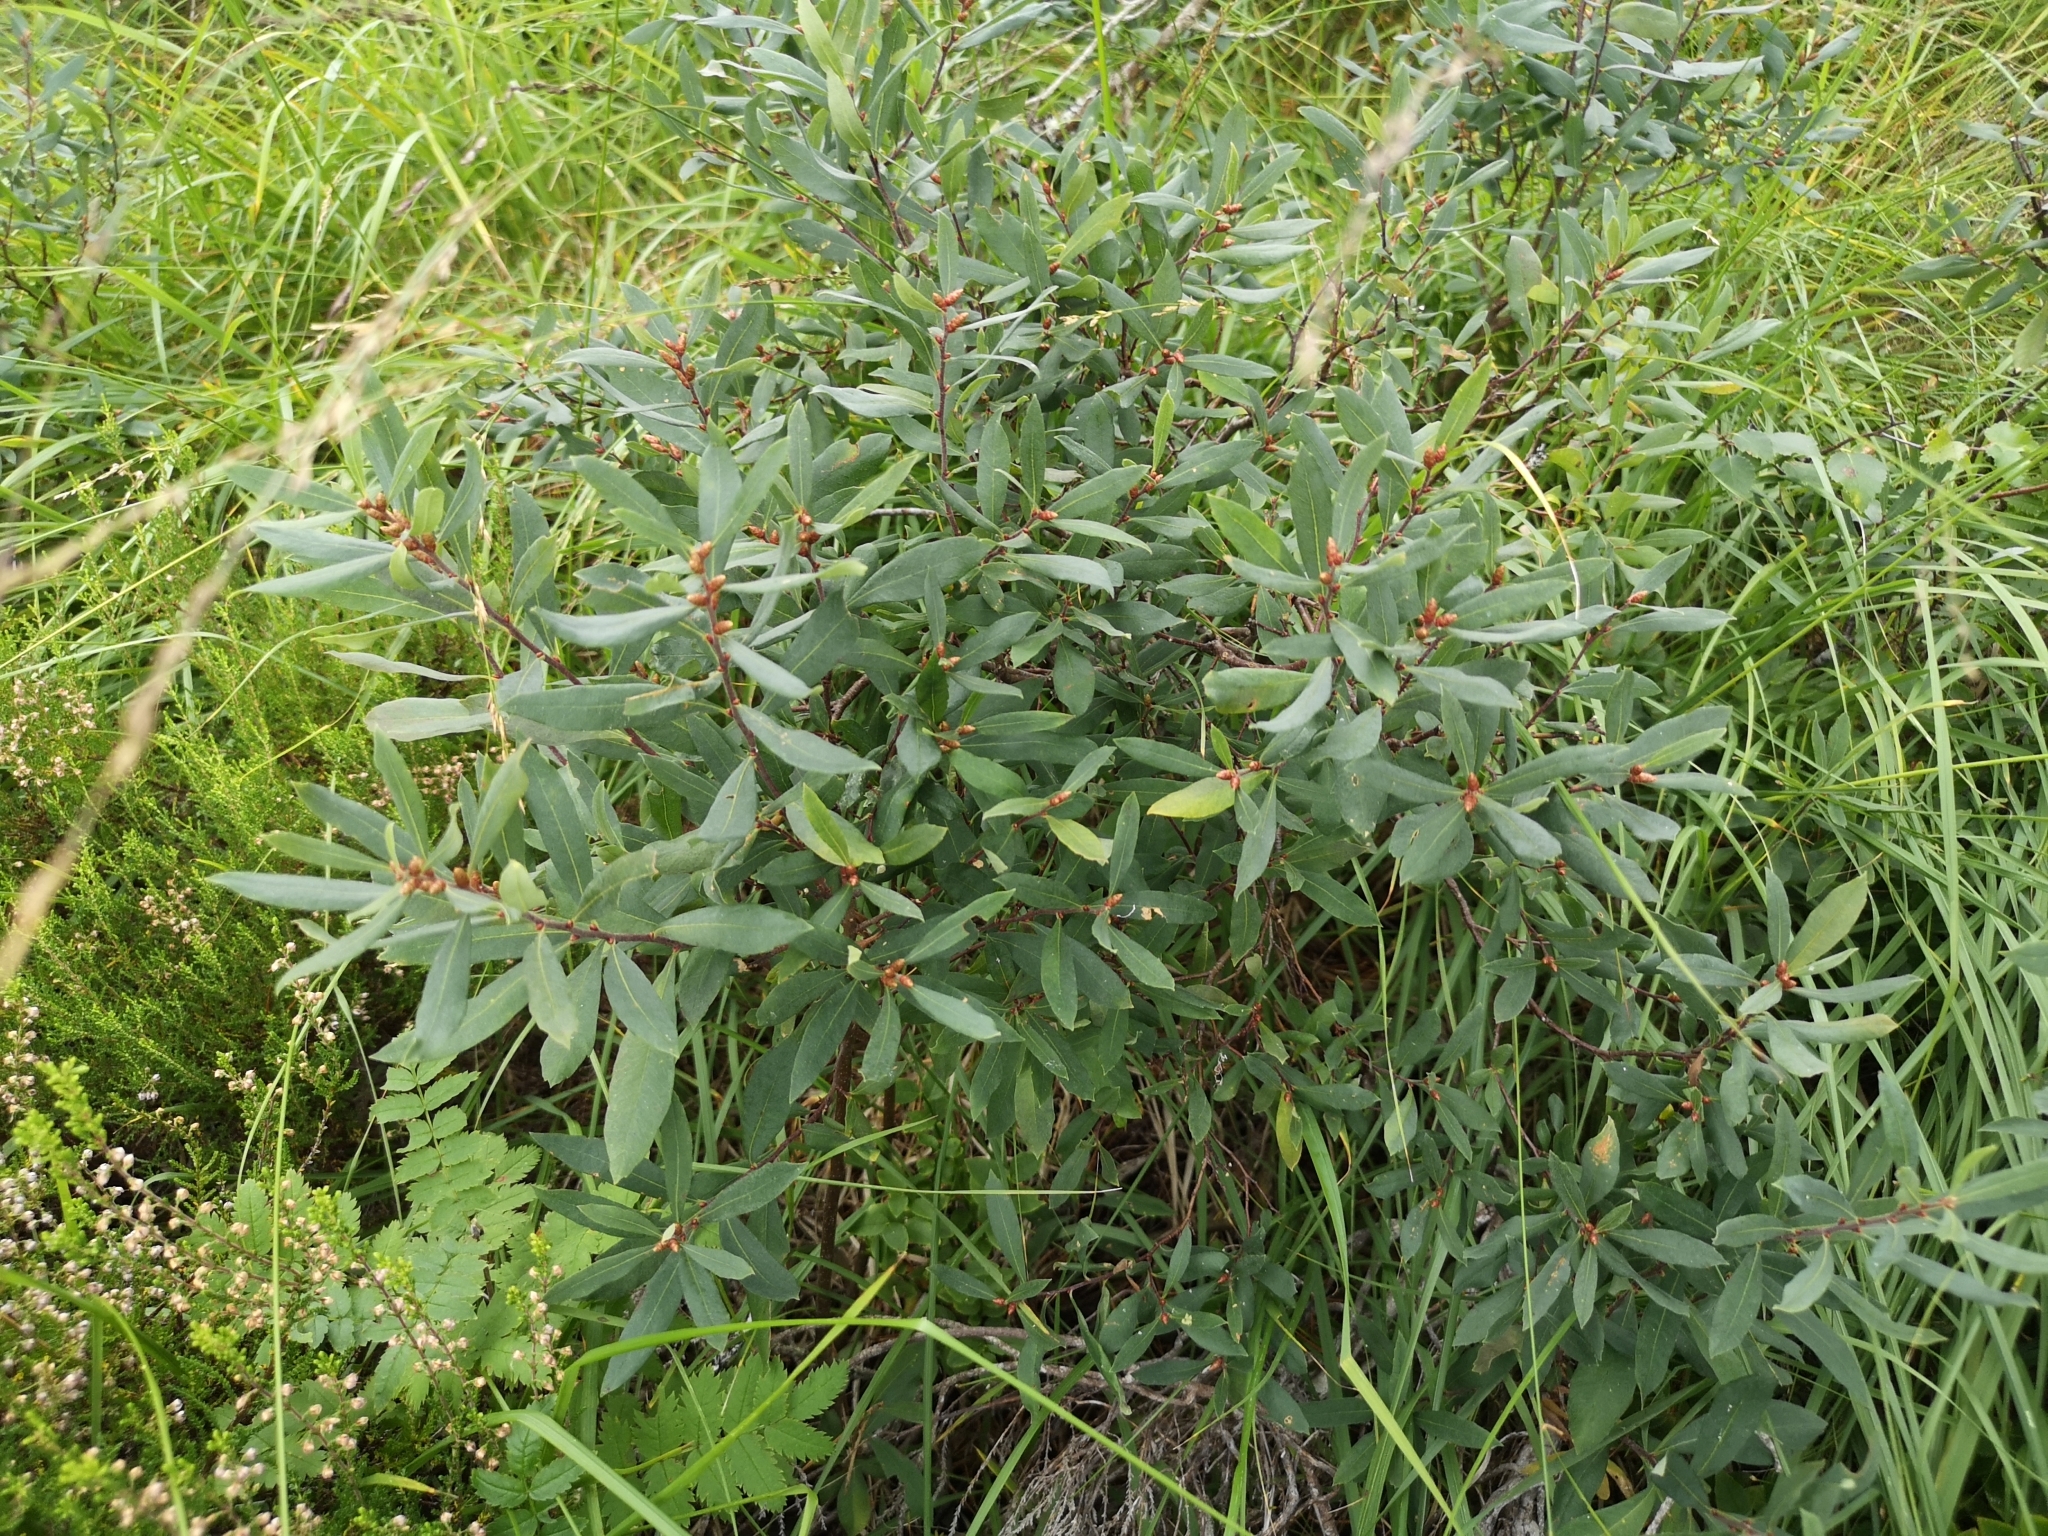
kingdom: Plantae
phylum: Tracheophyta
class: Magnoliopsida
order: Fagales
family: Myricaceae
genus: Myrica
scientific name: Myrica gale
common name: Sweet gale
